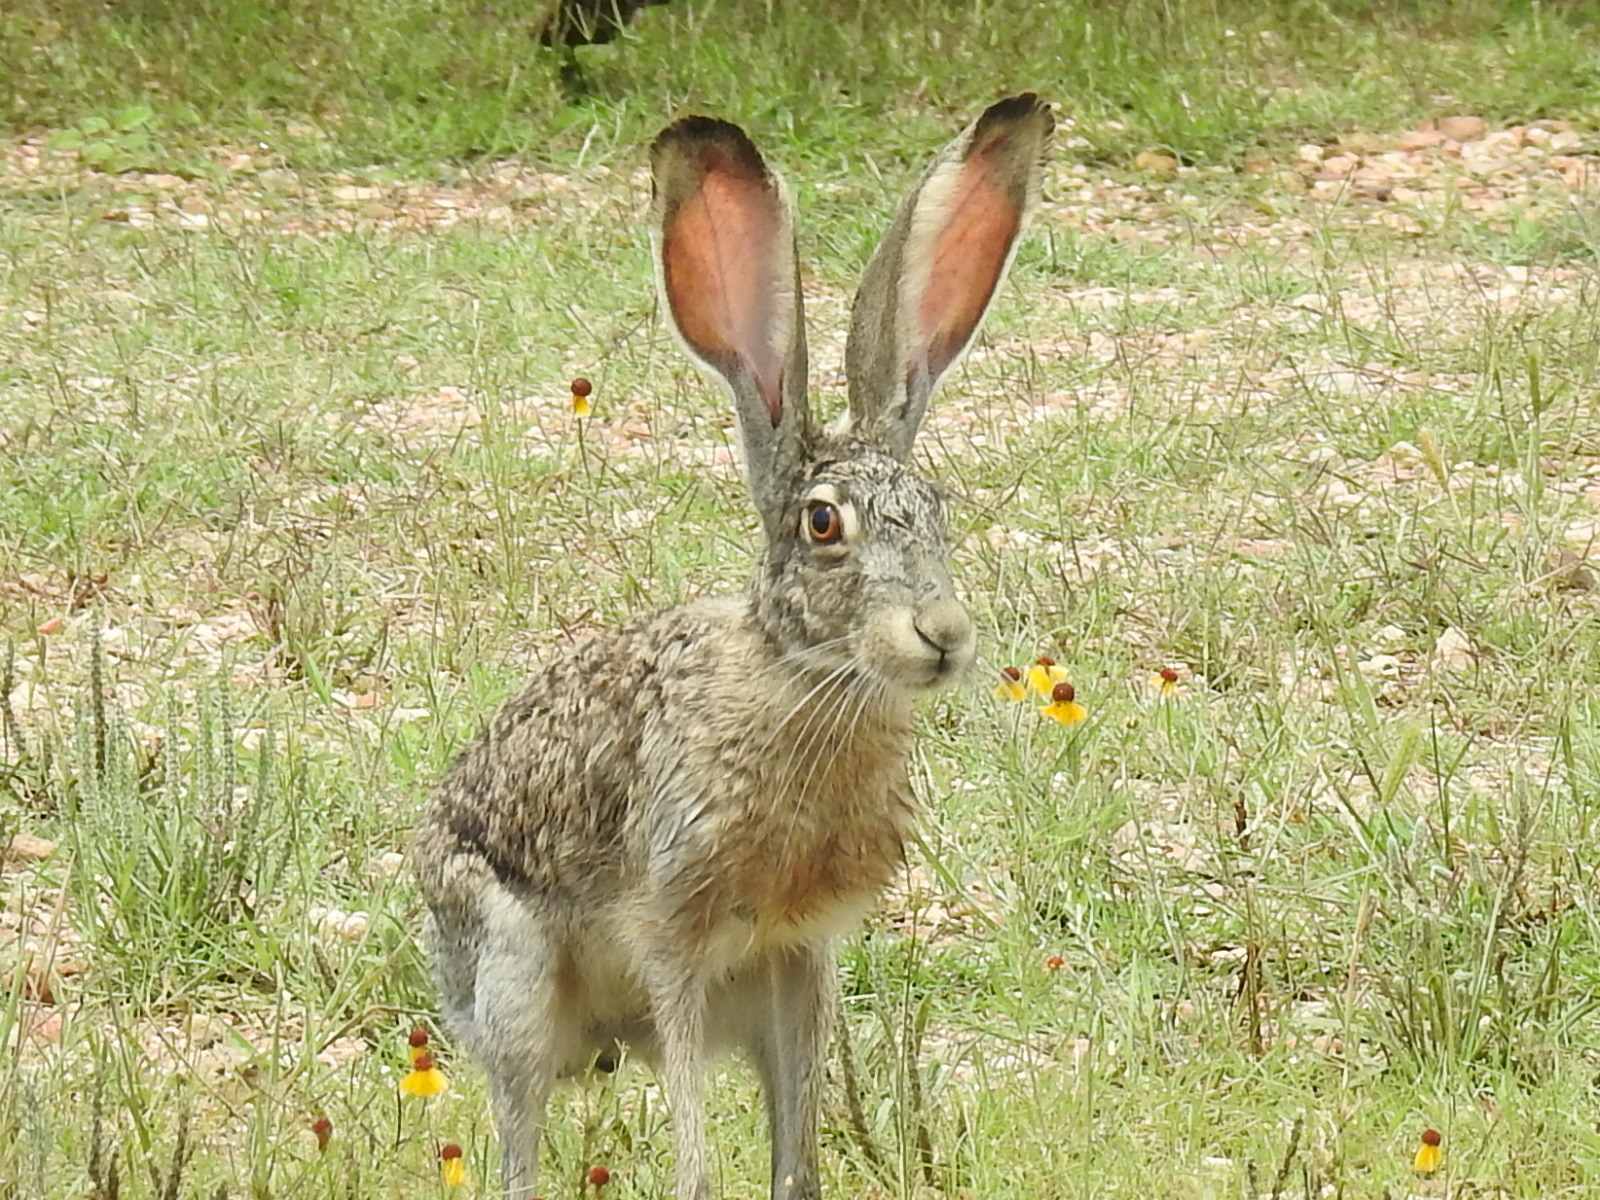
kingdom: Animalia
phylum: Chordata
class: Mammalia
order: Lagomorpha
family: Leporidae
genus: Lepus
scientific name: Lepus californicus
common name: Black-tailed jackrabbit
